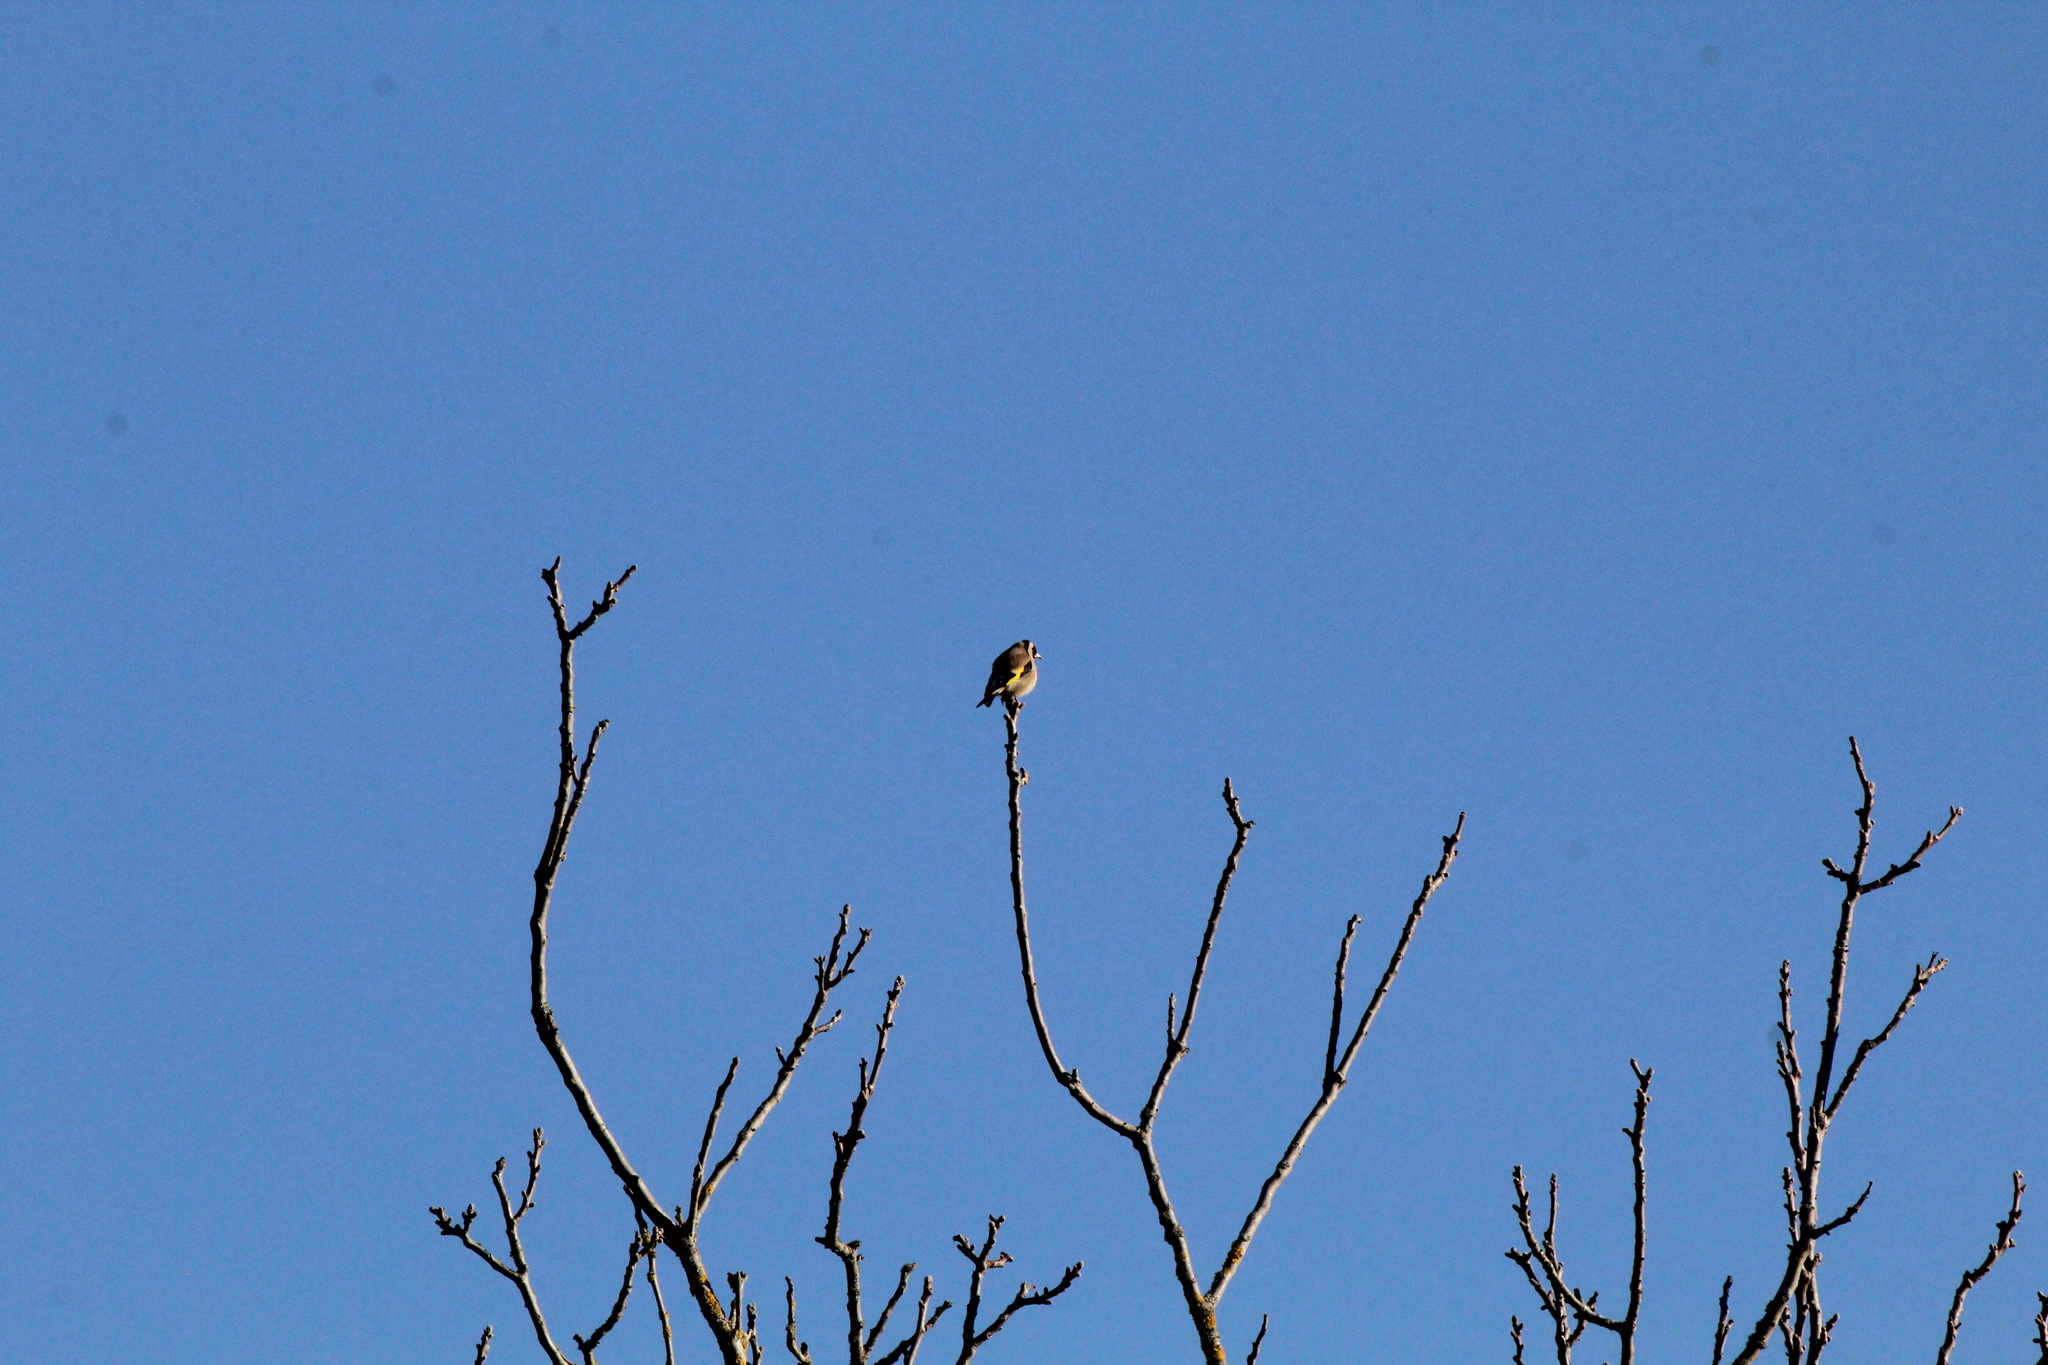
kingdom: Animalia
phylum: Chordata
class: Aves
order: Passeriformes
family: Fringillidae
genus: Carduelis
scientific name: Carduelis carduelis
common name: European goldfinch
